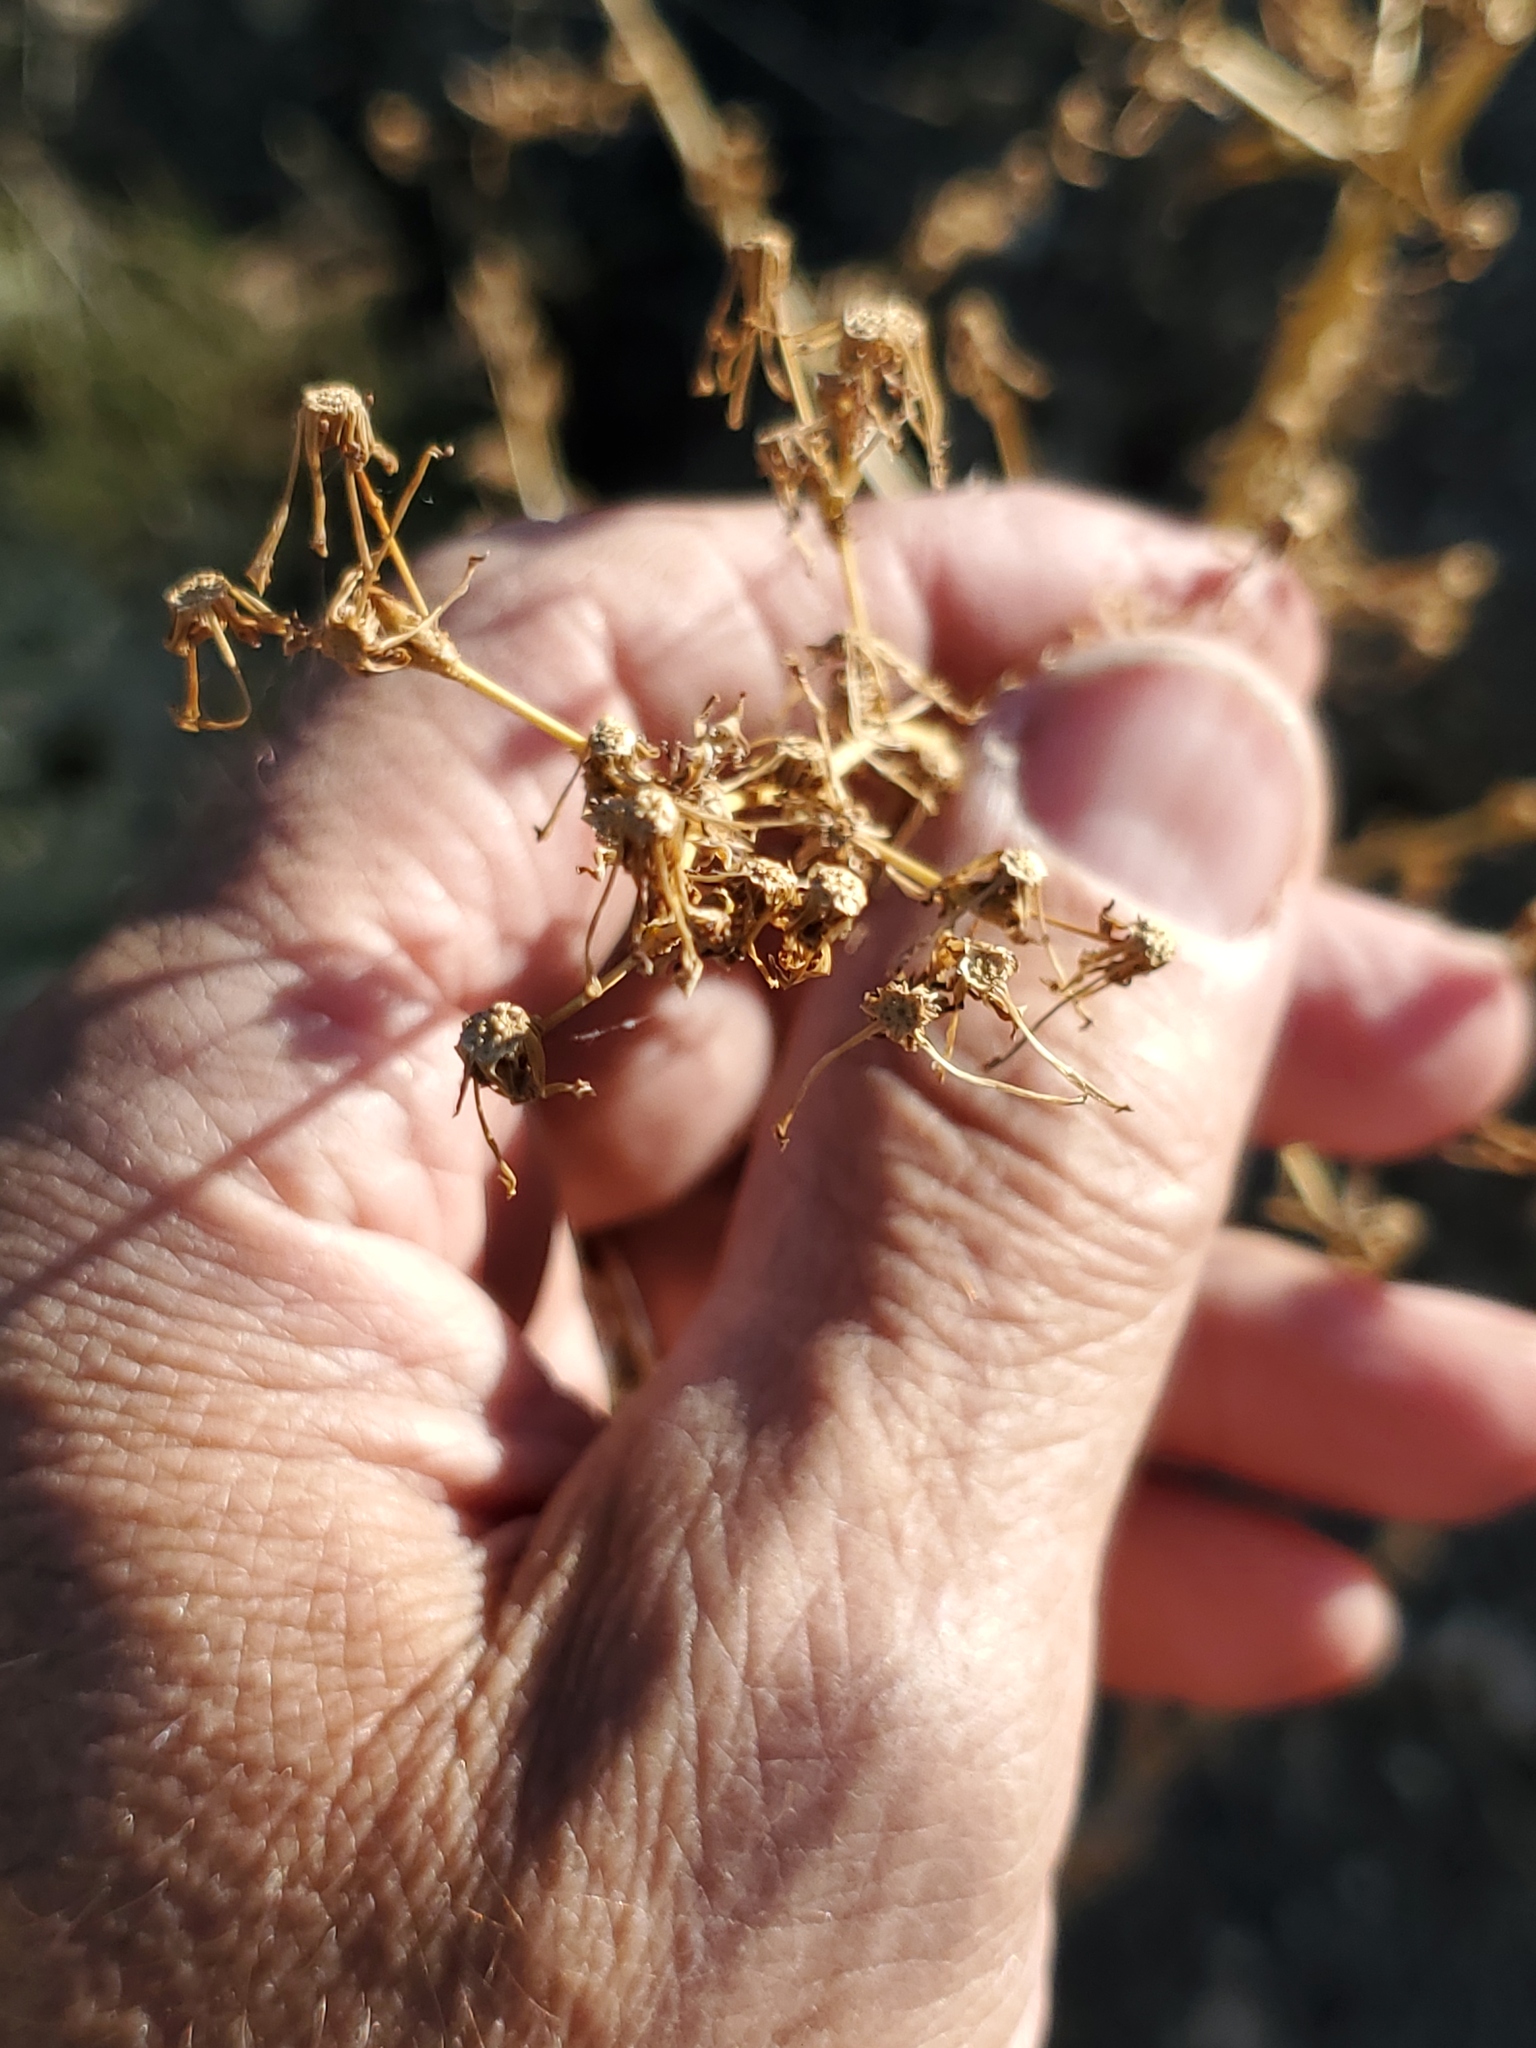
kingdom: Plantae
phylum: Tracheophyta
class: Magnoliopsida
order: Asterales
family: Asteraceae
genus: Lactuca
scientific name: Lactuca serriola
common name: Prickly lettuce
